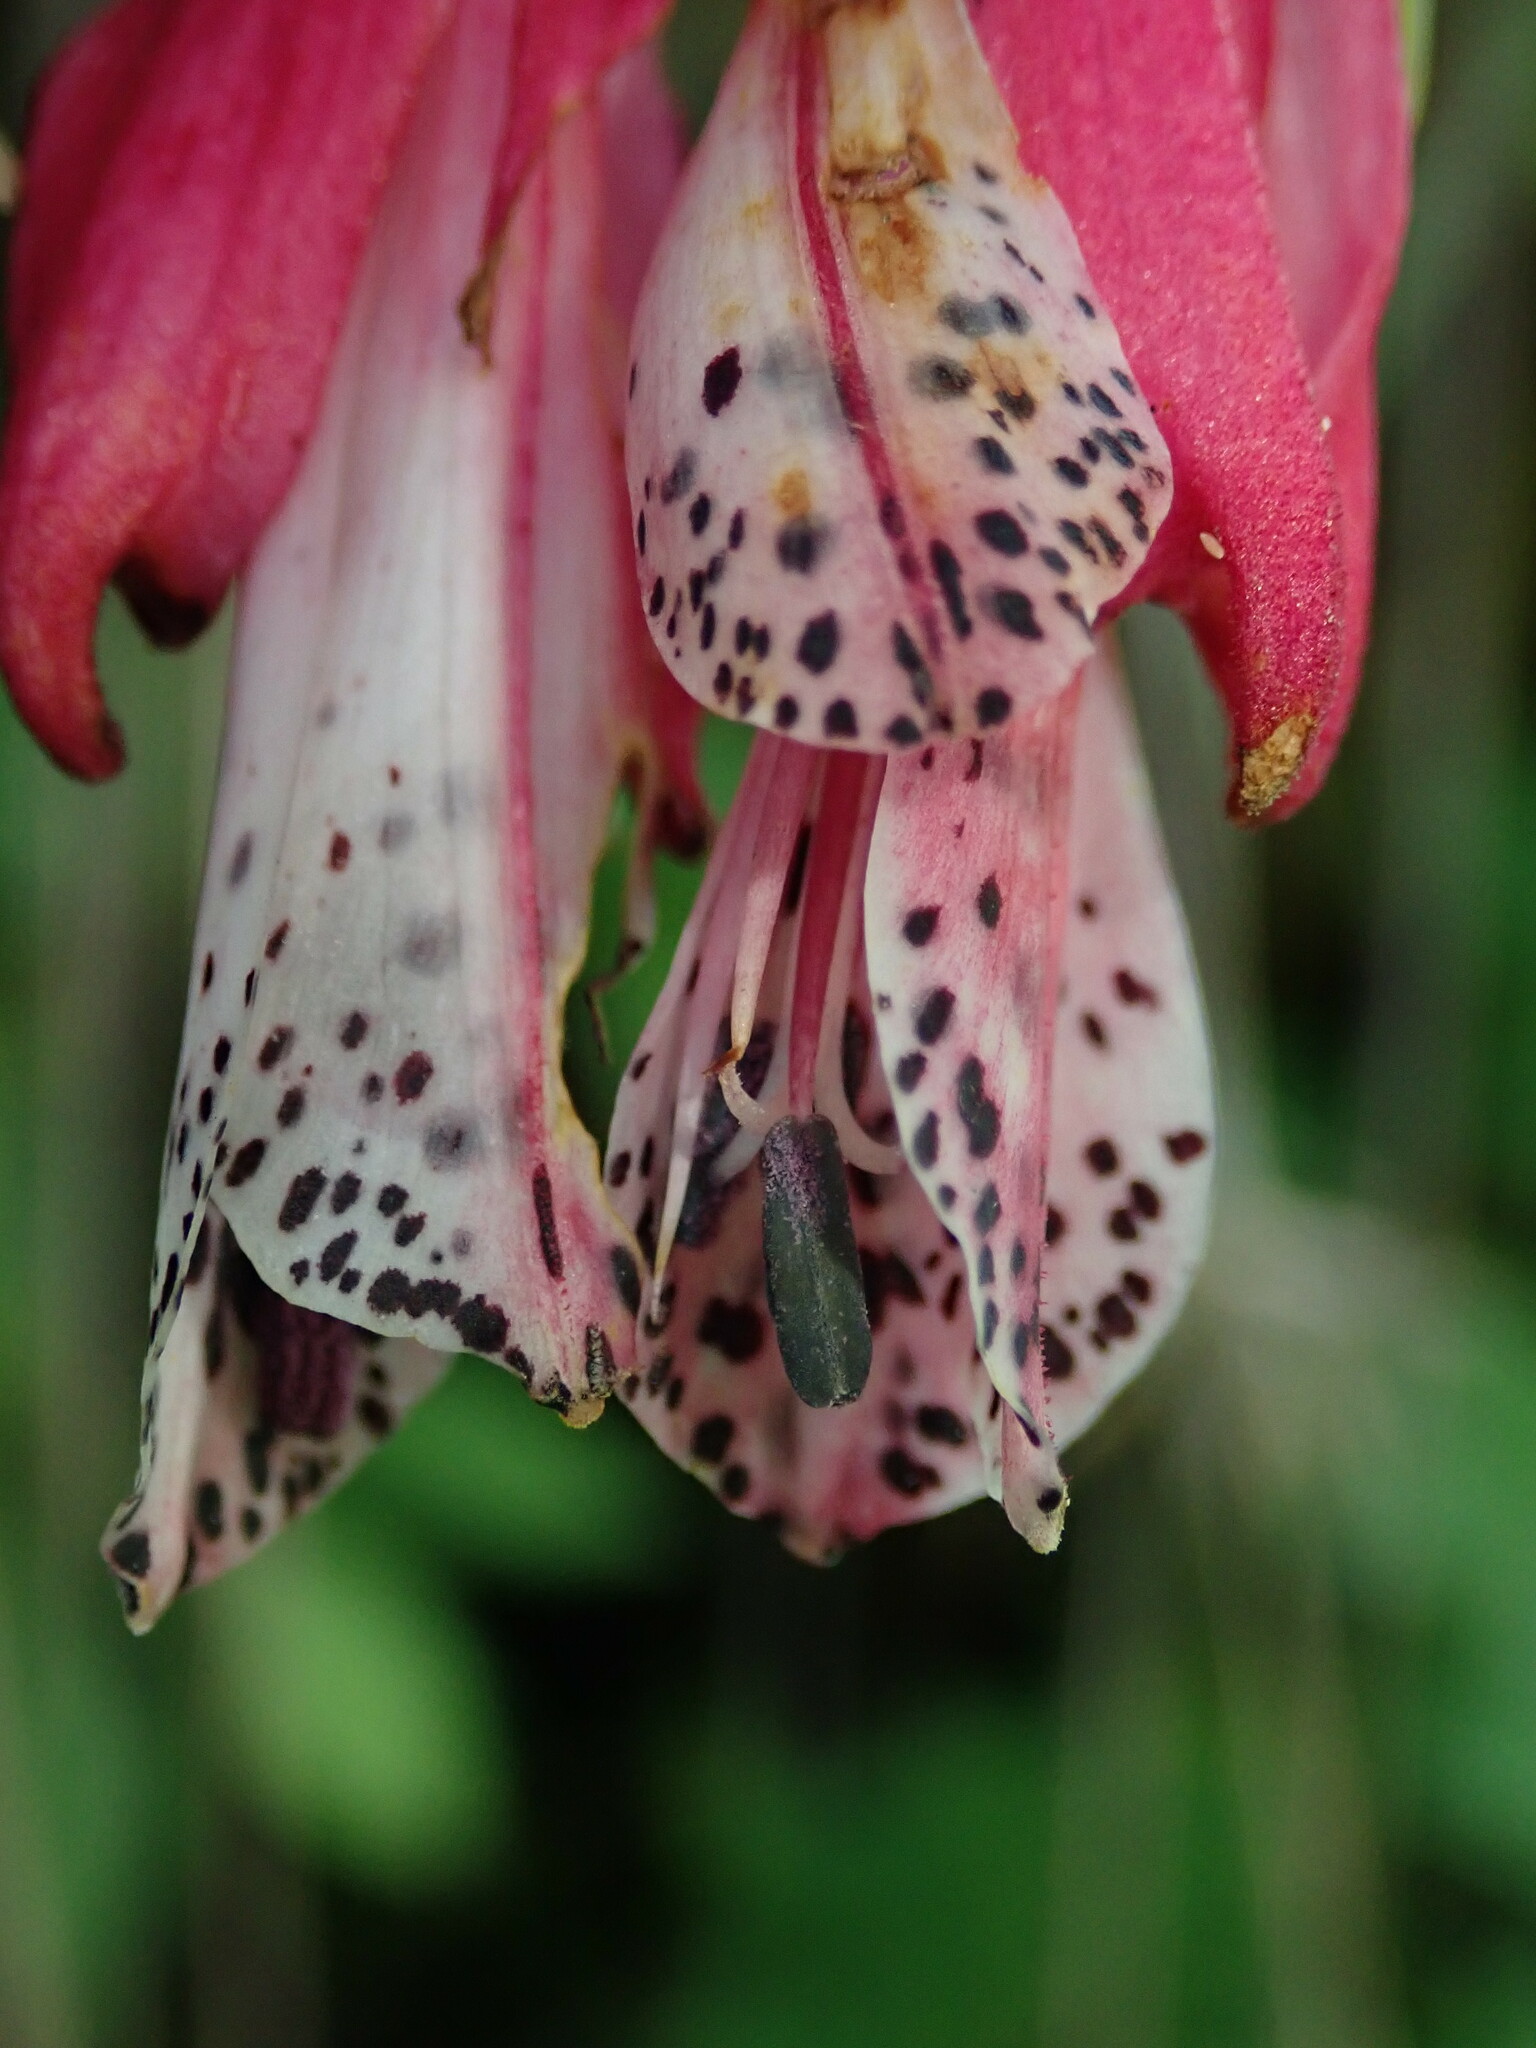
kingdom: Plantae
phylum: Tracheophyta
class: Liliopsida
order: Liliales
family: Alstroemeriaceae
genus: Bomarea
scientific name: Bomarea ceratophora
